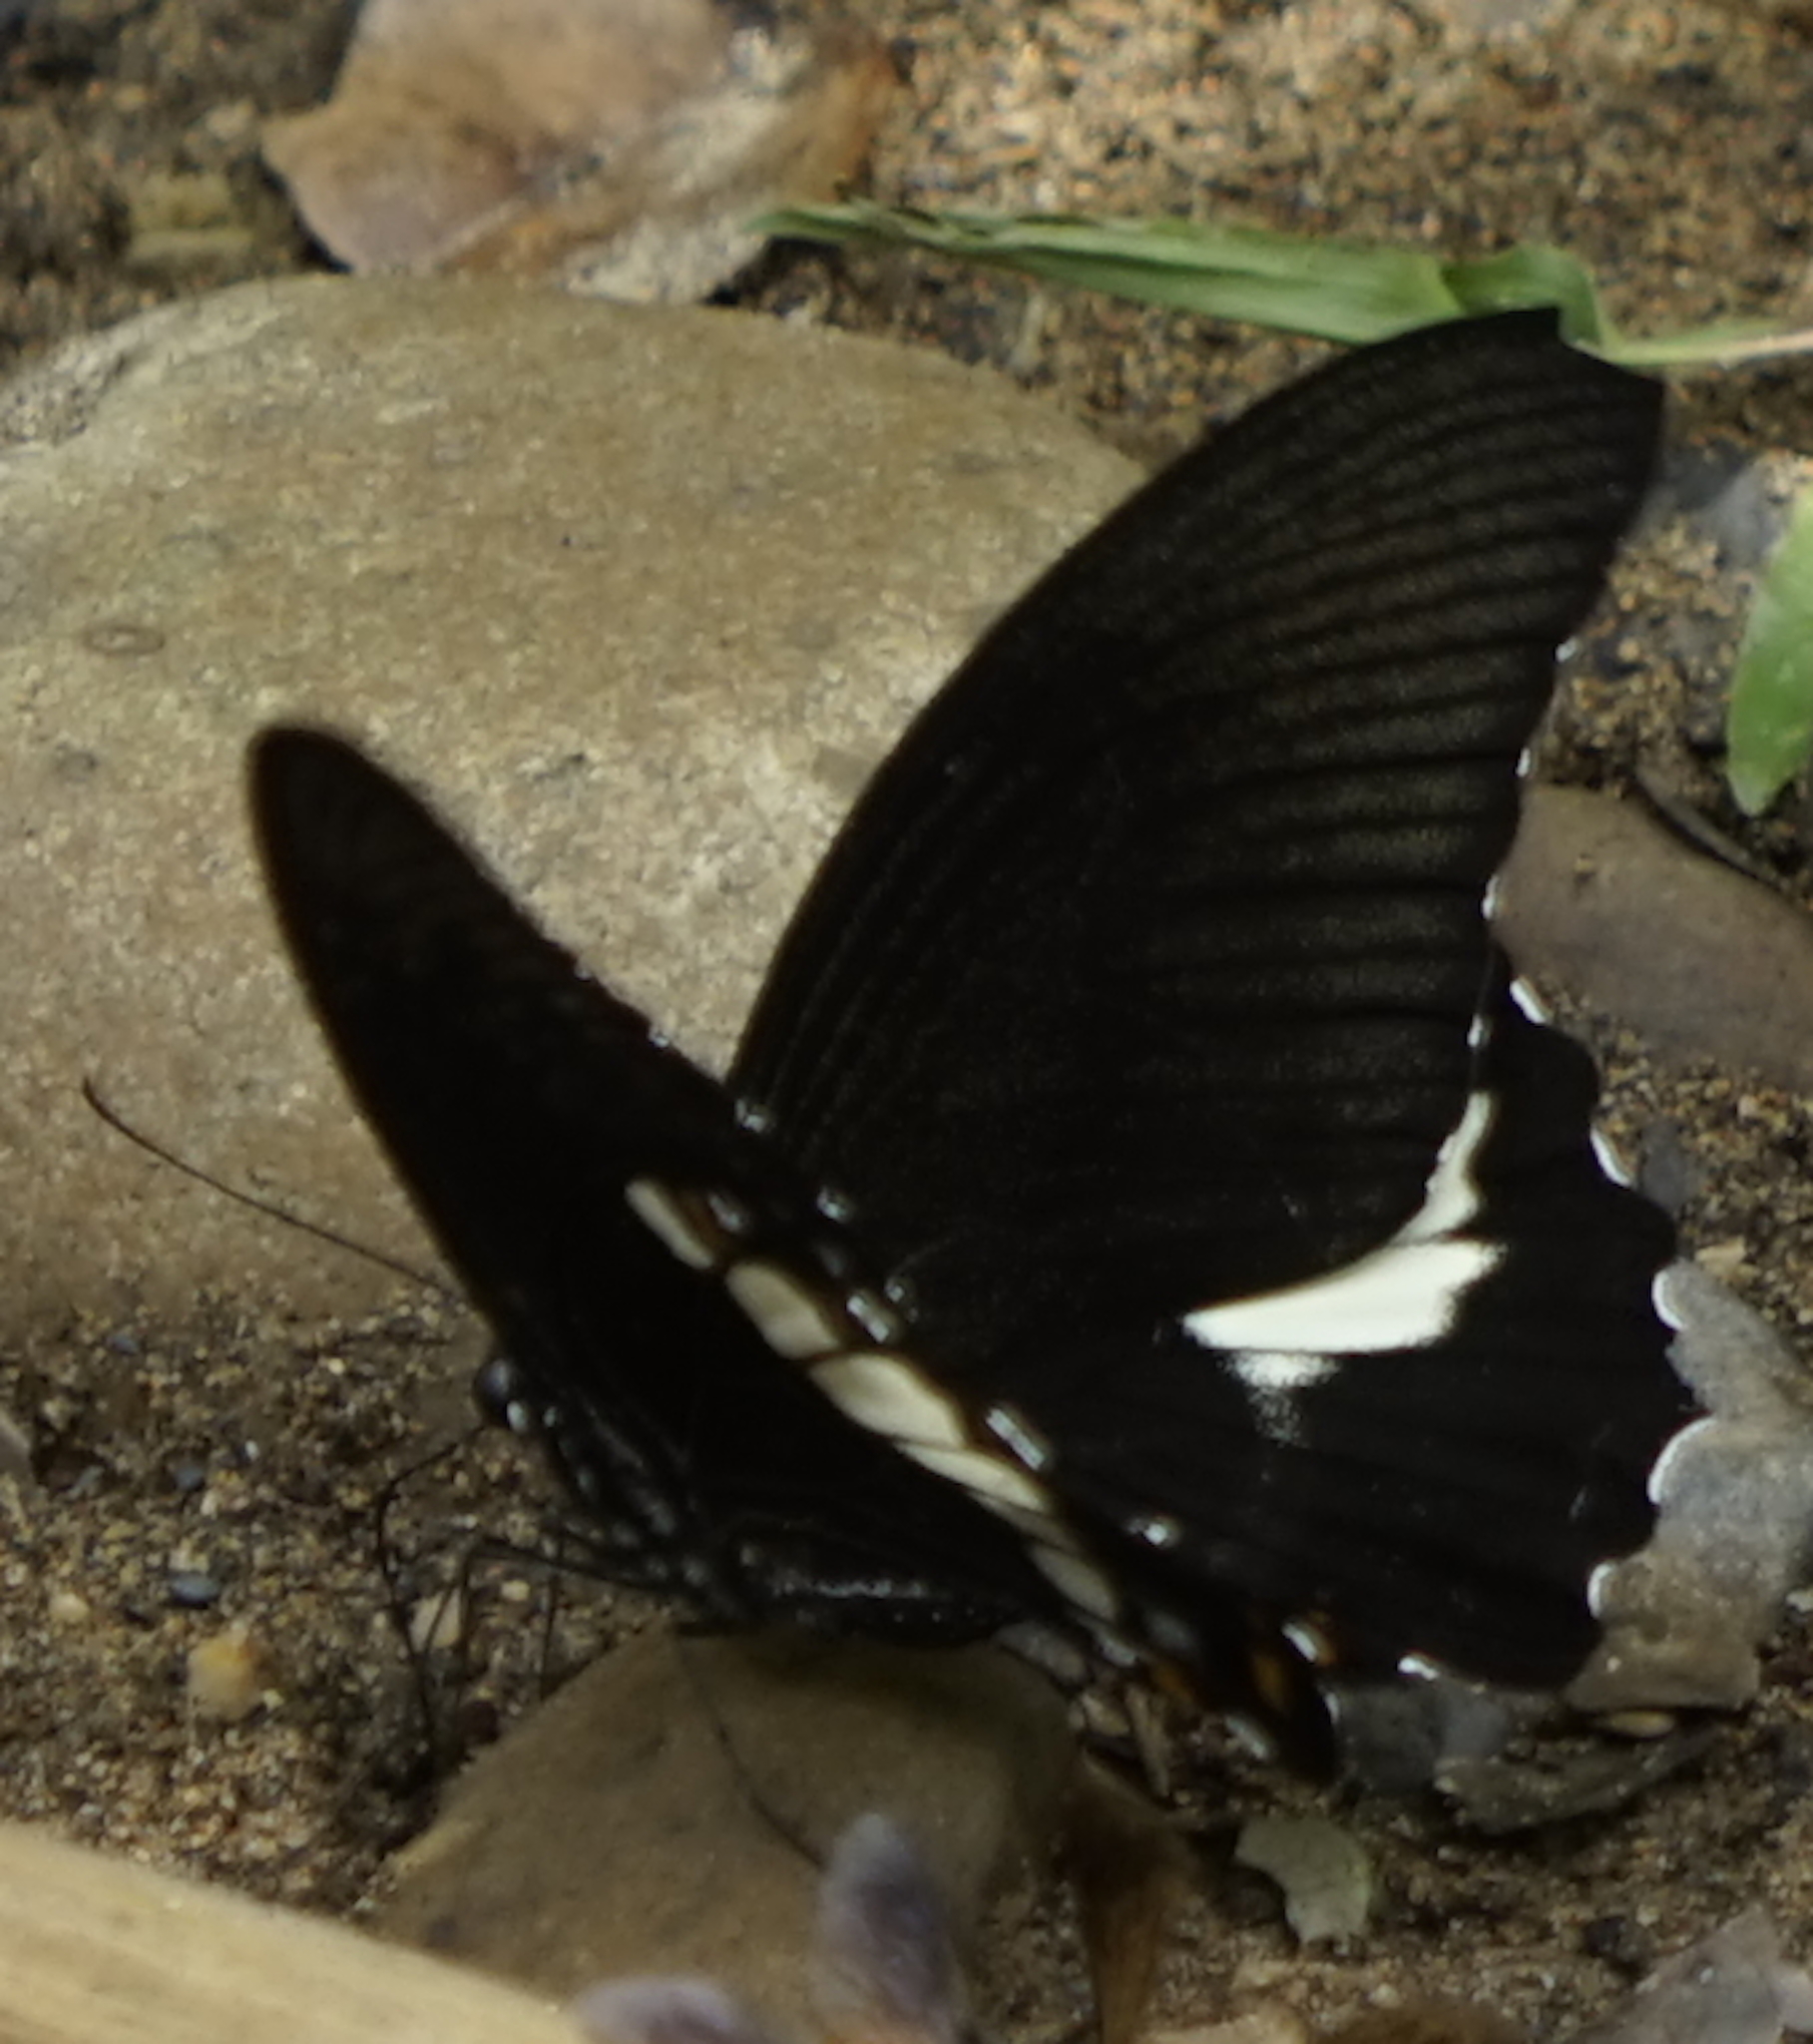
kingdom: Animalia
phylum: Arthropoda
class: Insecta
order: Lepidoptera
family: Papilionidae
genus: Papilio
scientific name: Papilio prexaspes
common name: Blue helen swallowtail
